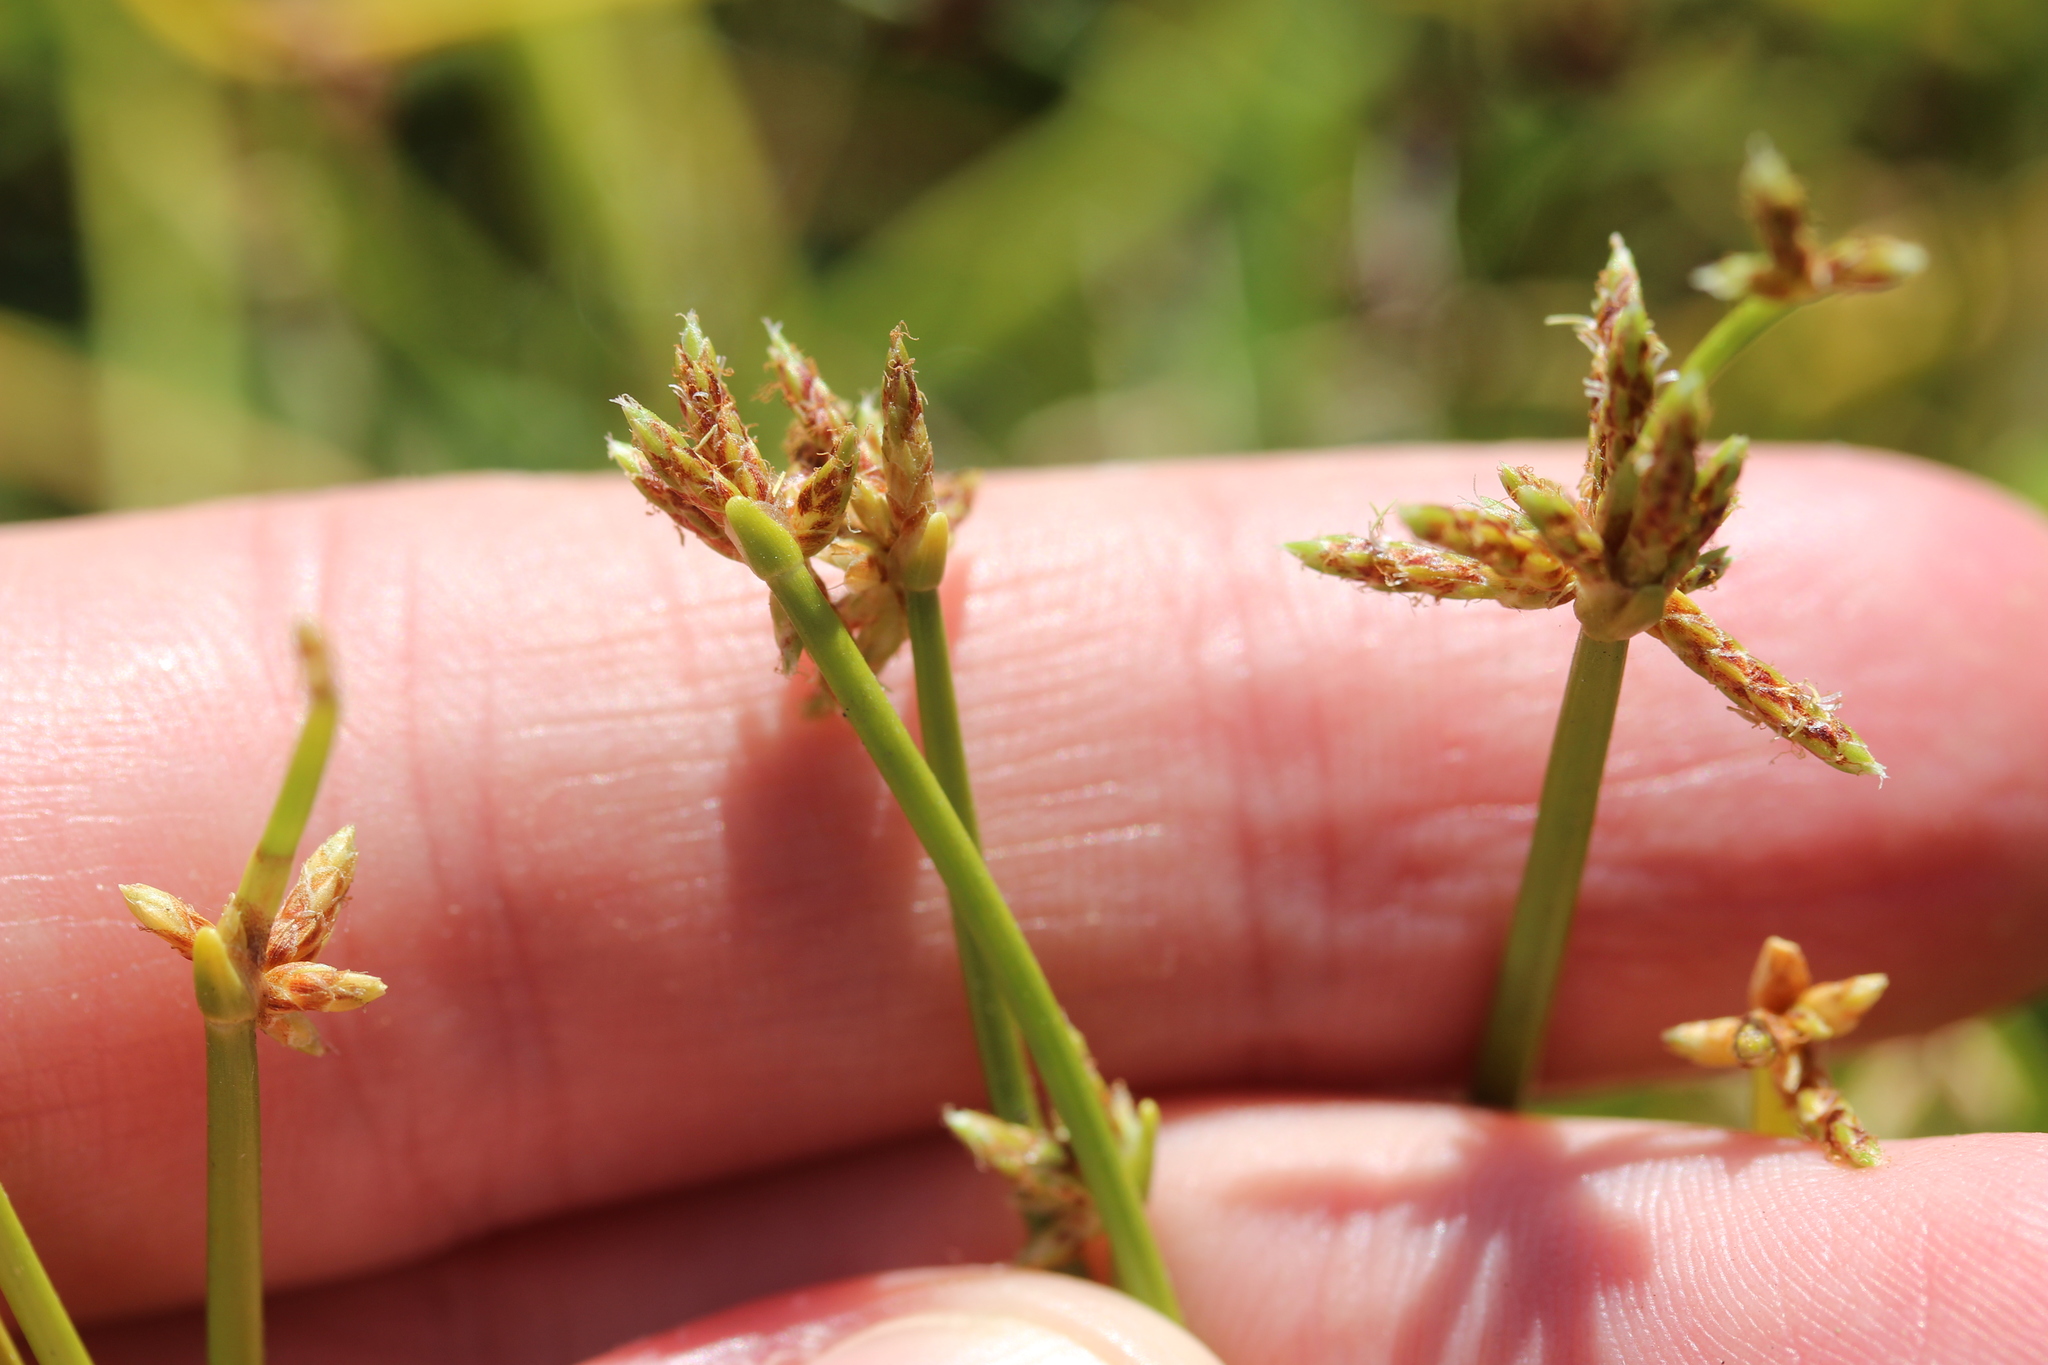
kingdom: Plantae
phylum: Tracheophyta
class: Liliopsida
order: Poales
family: Cyperaceae
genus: Isolepis
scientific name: Isolepis prolifera
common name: Proliferating bulrush
